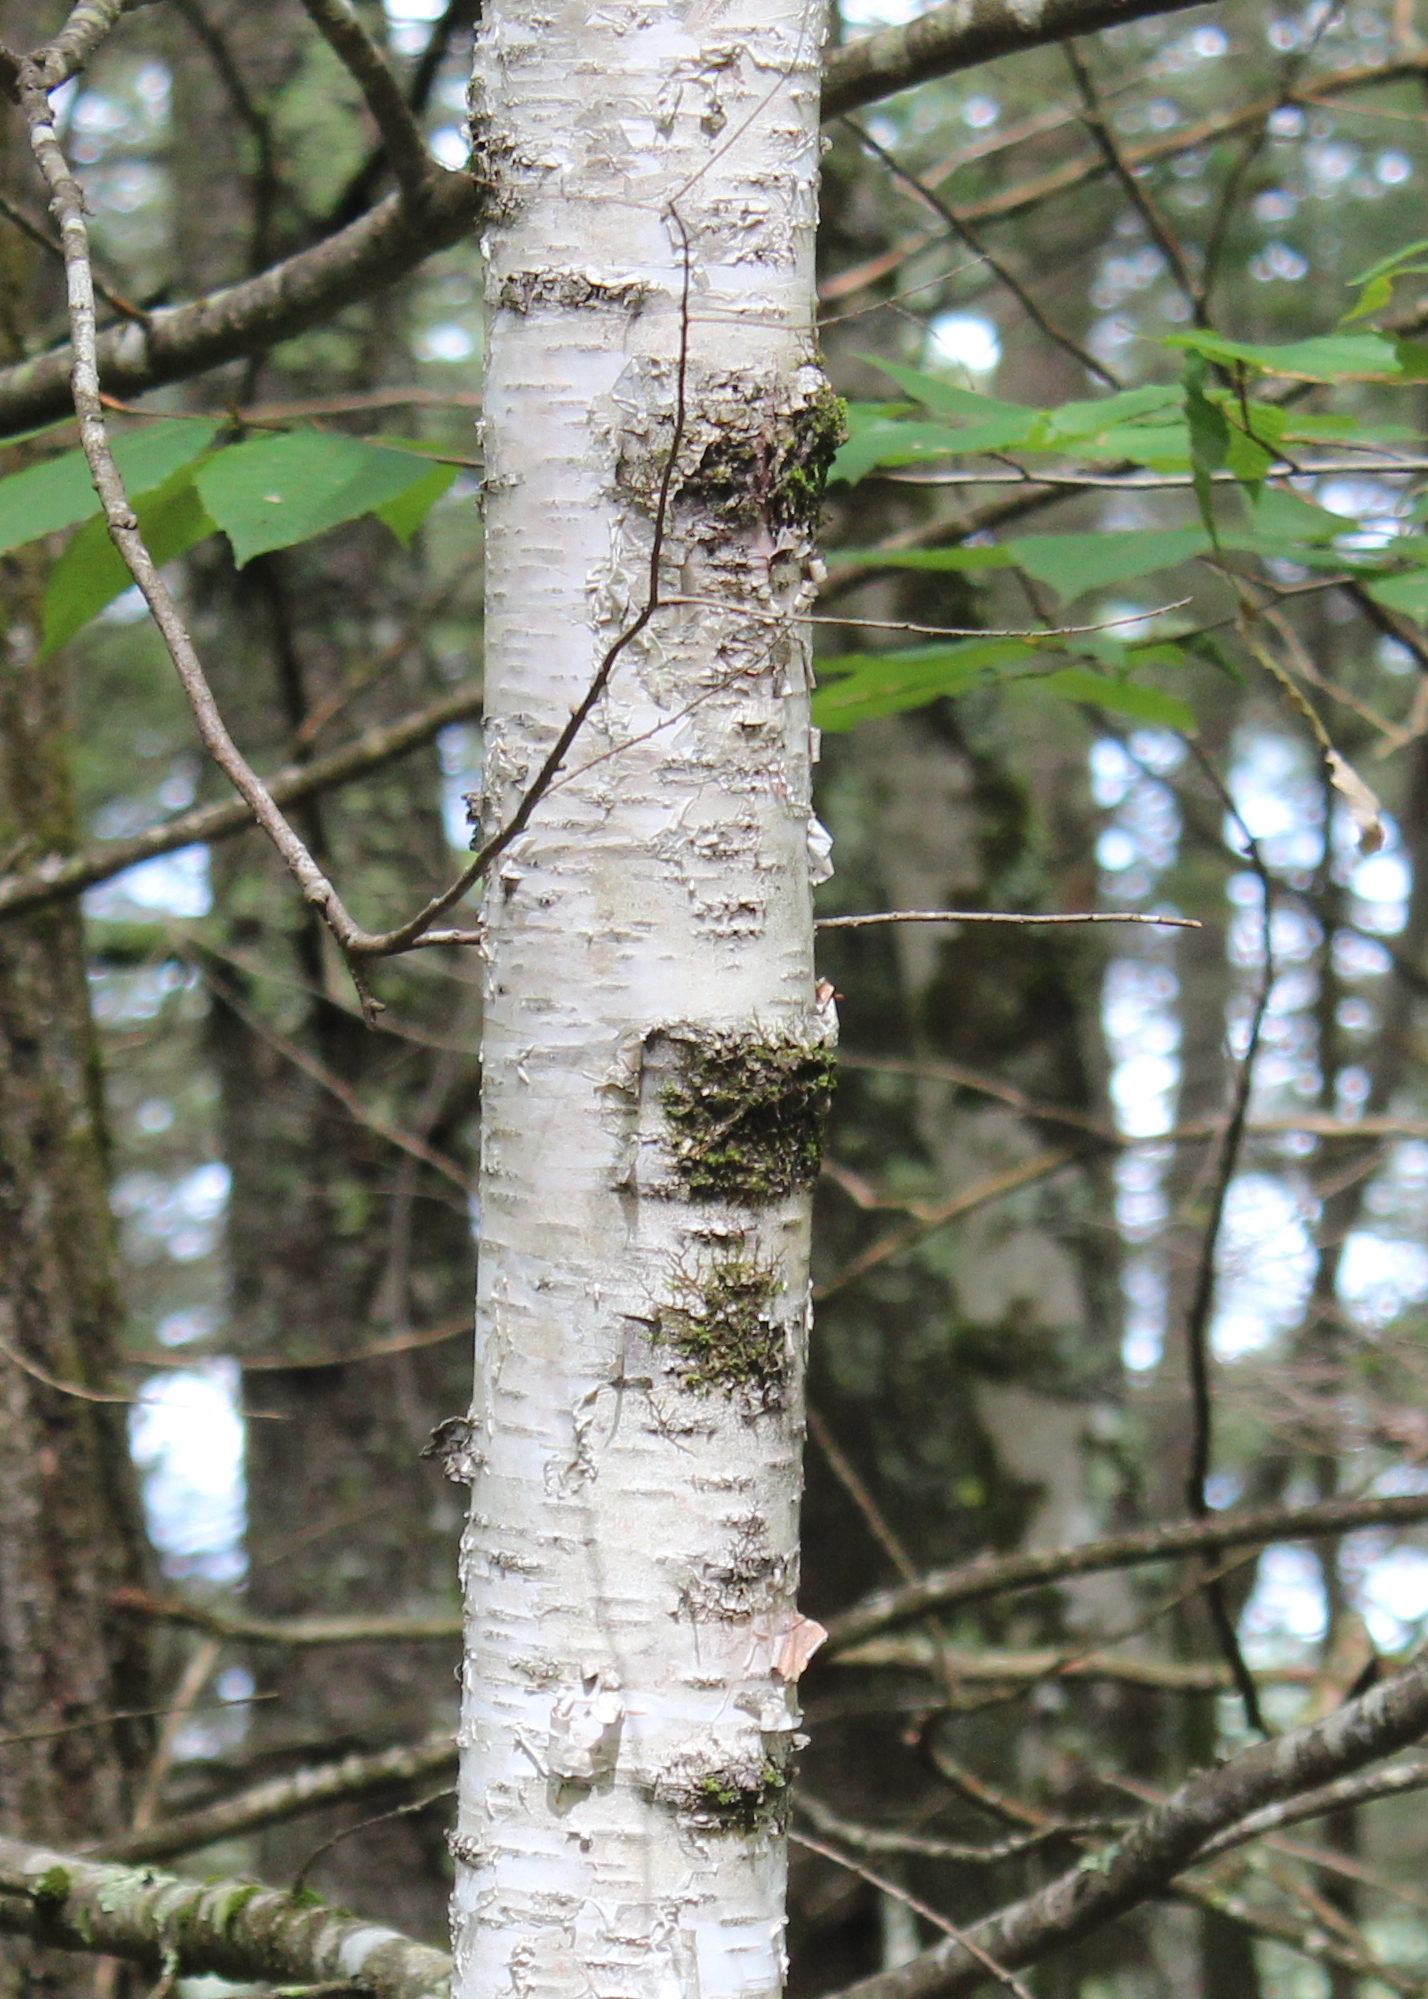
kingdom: Plantae
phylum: Tracheophyta
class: Magnoliopsida
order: Fagales
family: Betulaceae
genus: Betula
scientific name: Betula papyrifera
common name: Paper birch
